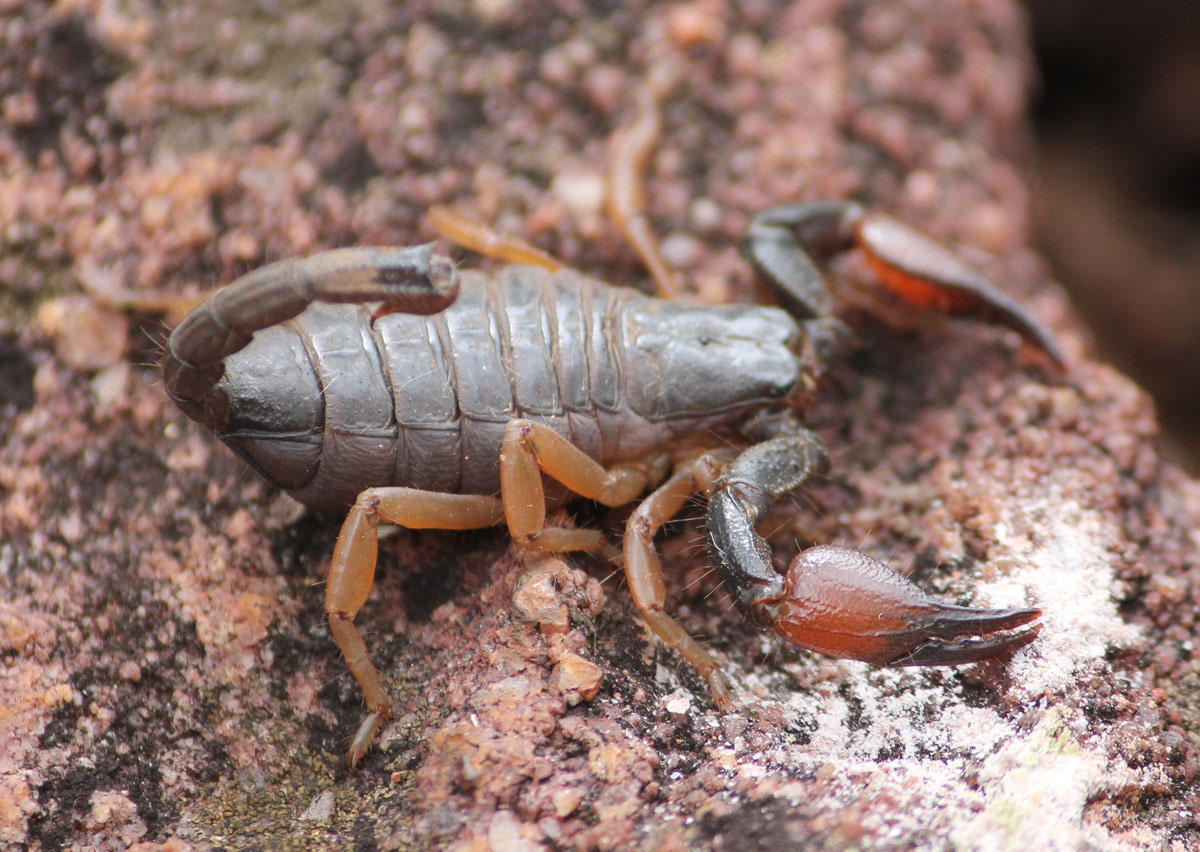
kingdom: Animalia
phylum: Arthropoda
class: Arachnida
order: Scorpiones
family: Scorpionidae
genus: Opistophthalmus
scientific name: Opistophthalmus lawrencei
